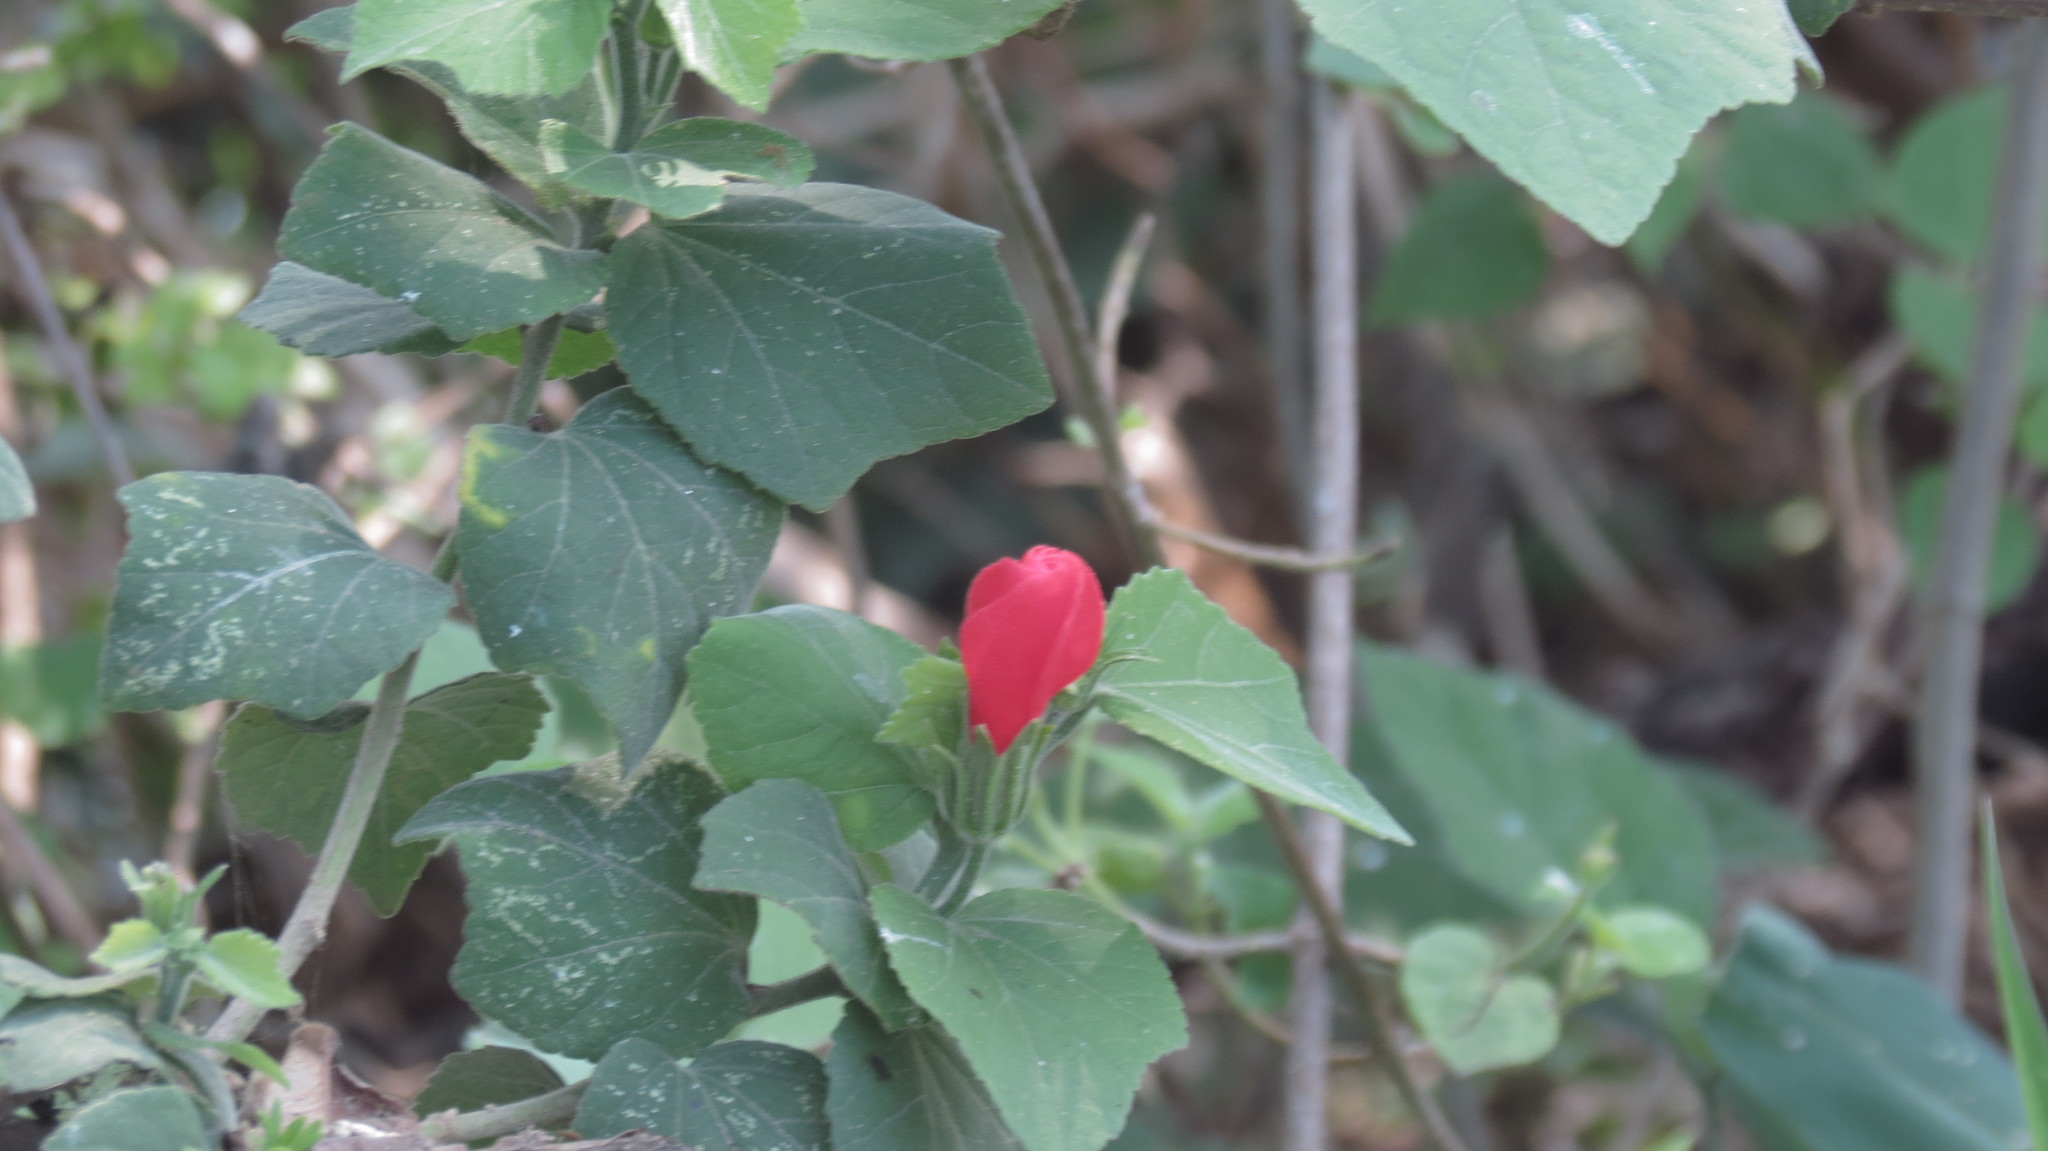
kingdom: Plantae
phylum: Tracheophyta
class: Magnoliopsida
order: Malvales
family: Malvaceae
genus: Malvaviscus
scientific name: Malvaviscus arboreus
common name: Wax mallow
